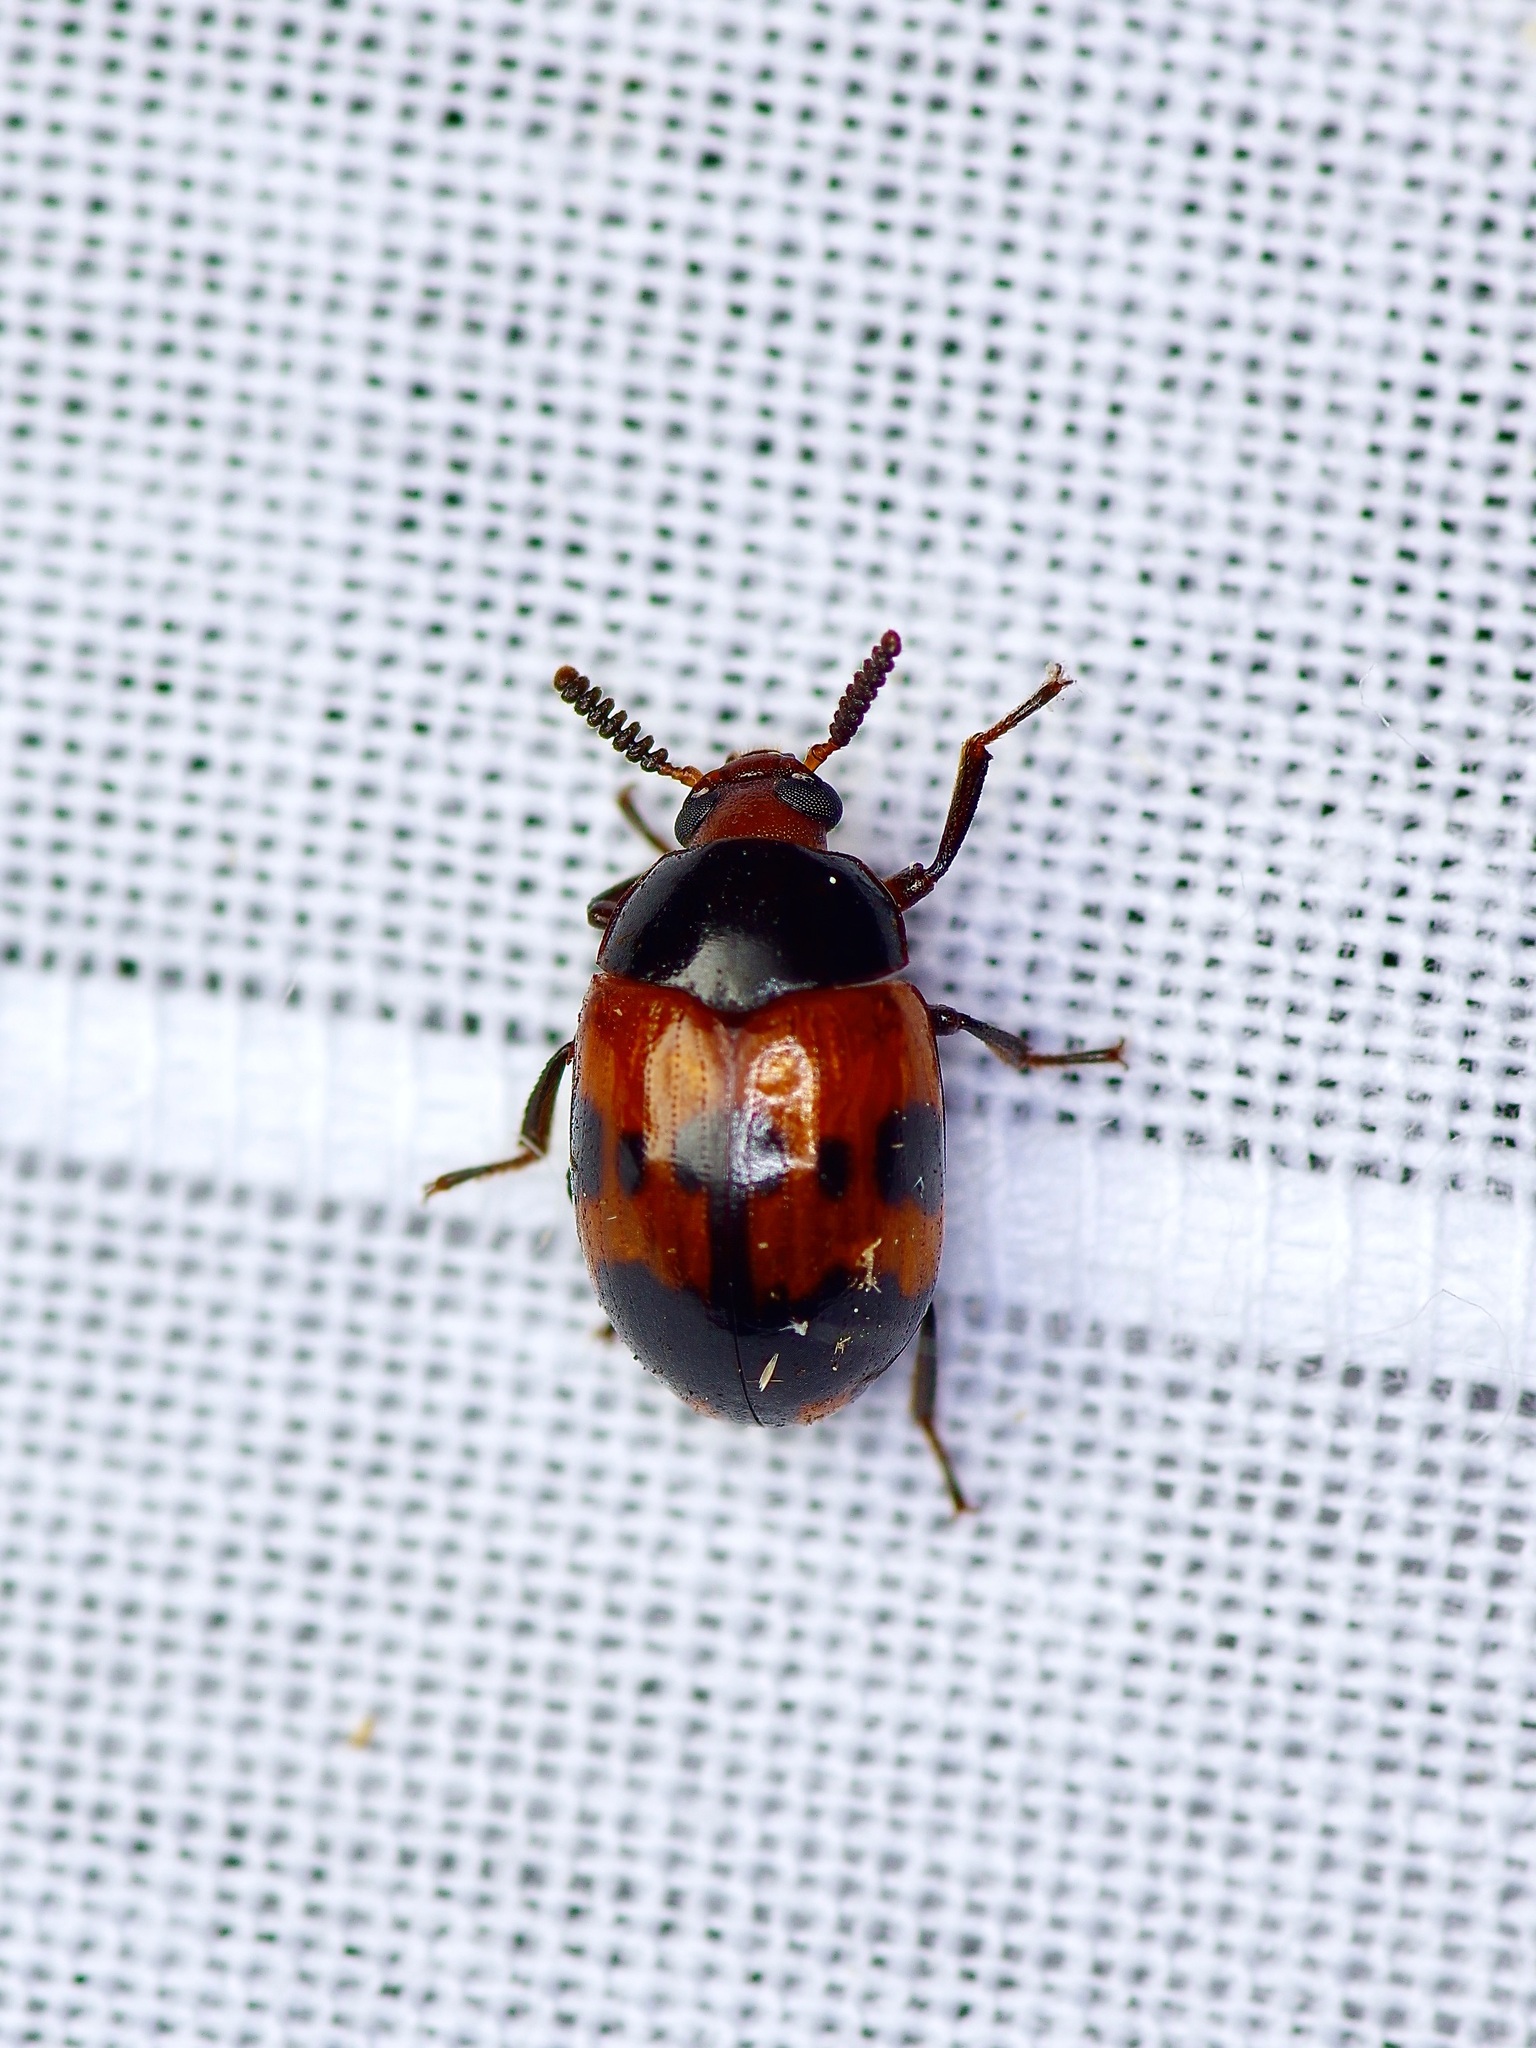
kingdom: Animalia
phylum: Arthropoda
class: Insecta
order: Coleoptera
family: Tenebrionidae
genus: Diaperis
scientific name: Diaperis nigronotata
